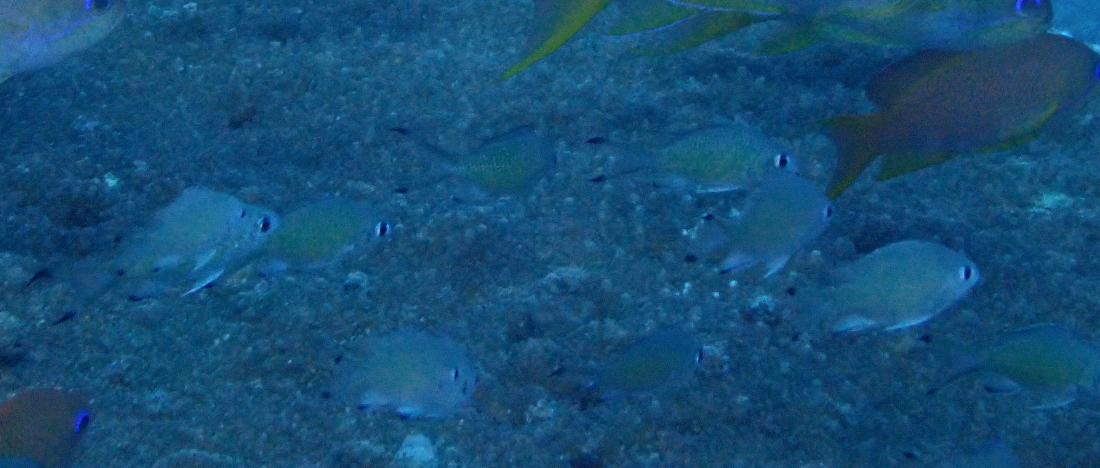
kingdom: Animalia
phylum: Chordata
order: Perciformes
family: Pomacentridae
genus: Chromis
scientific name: Chromis lepidolepis
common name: Scaly chromis
